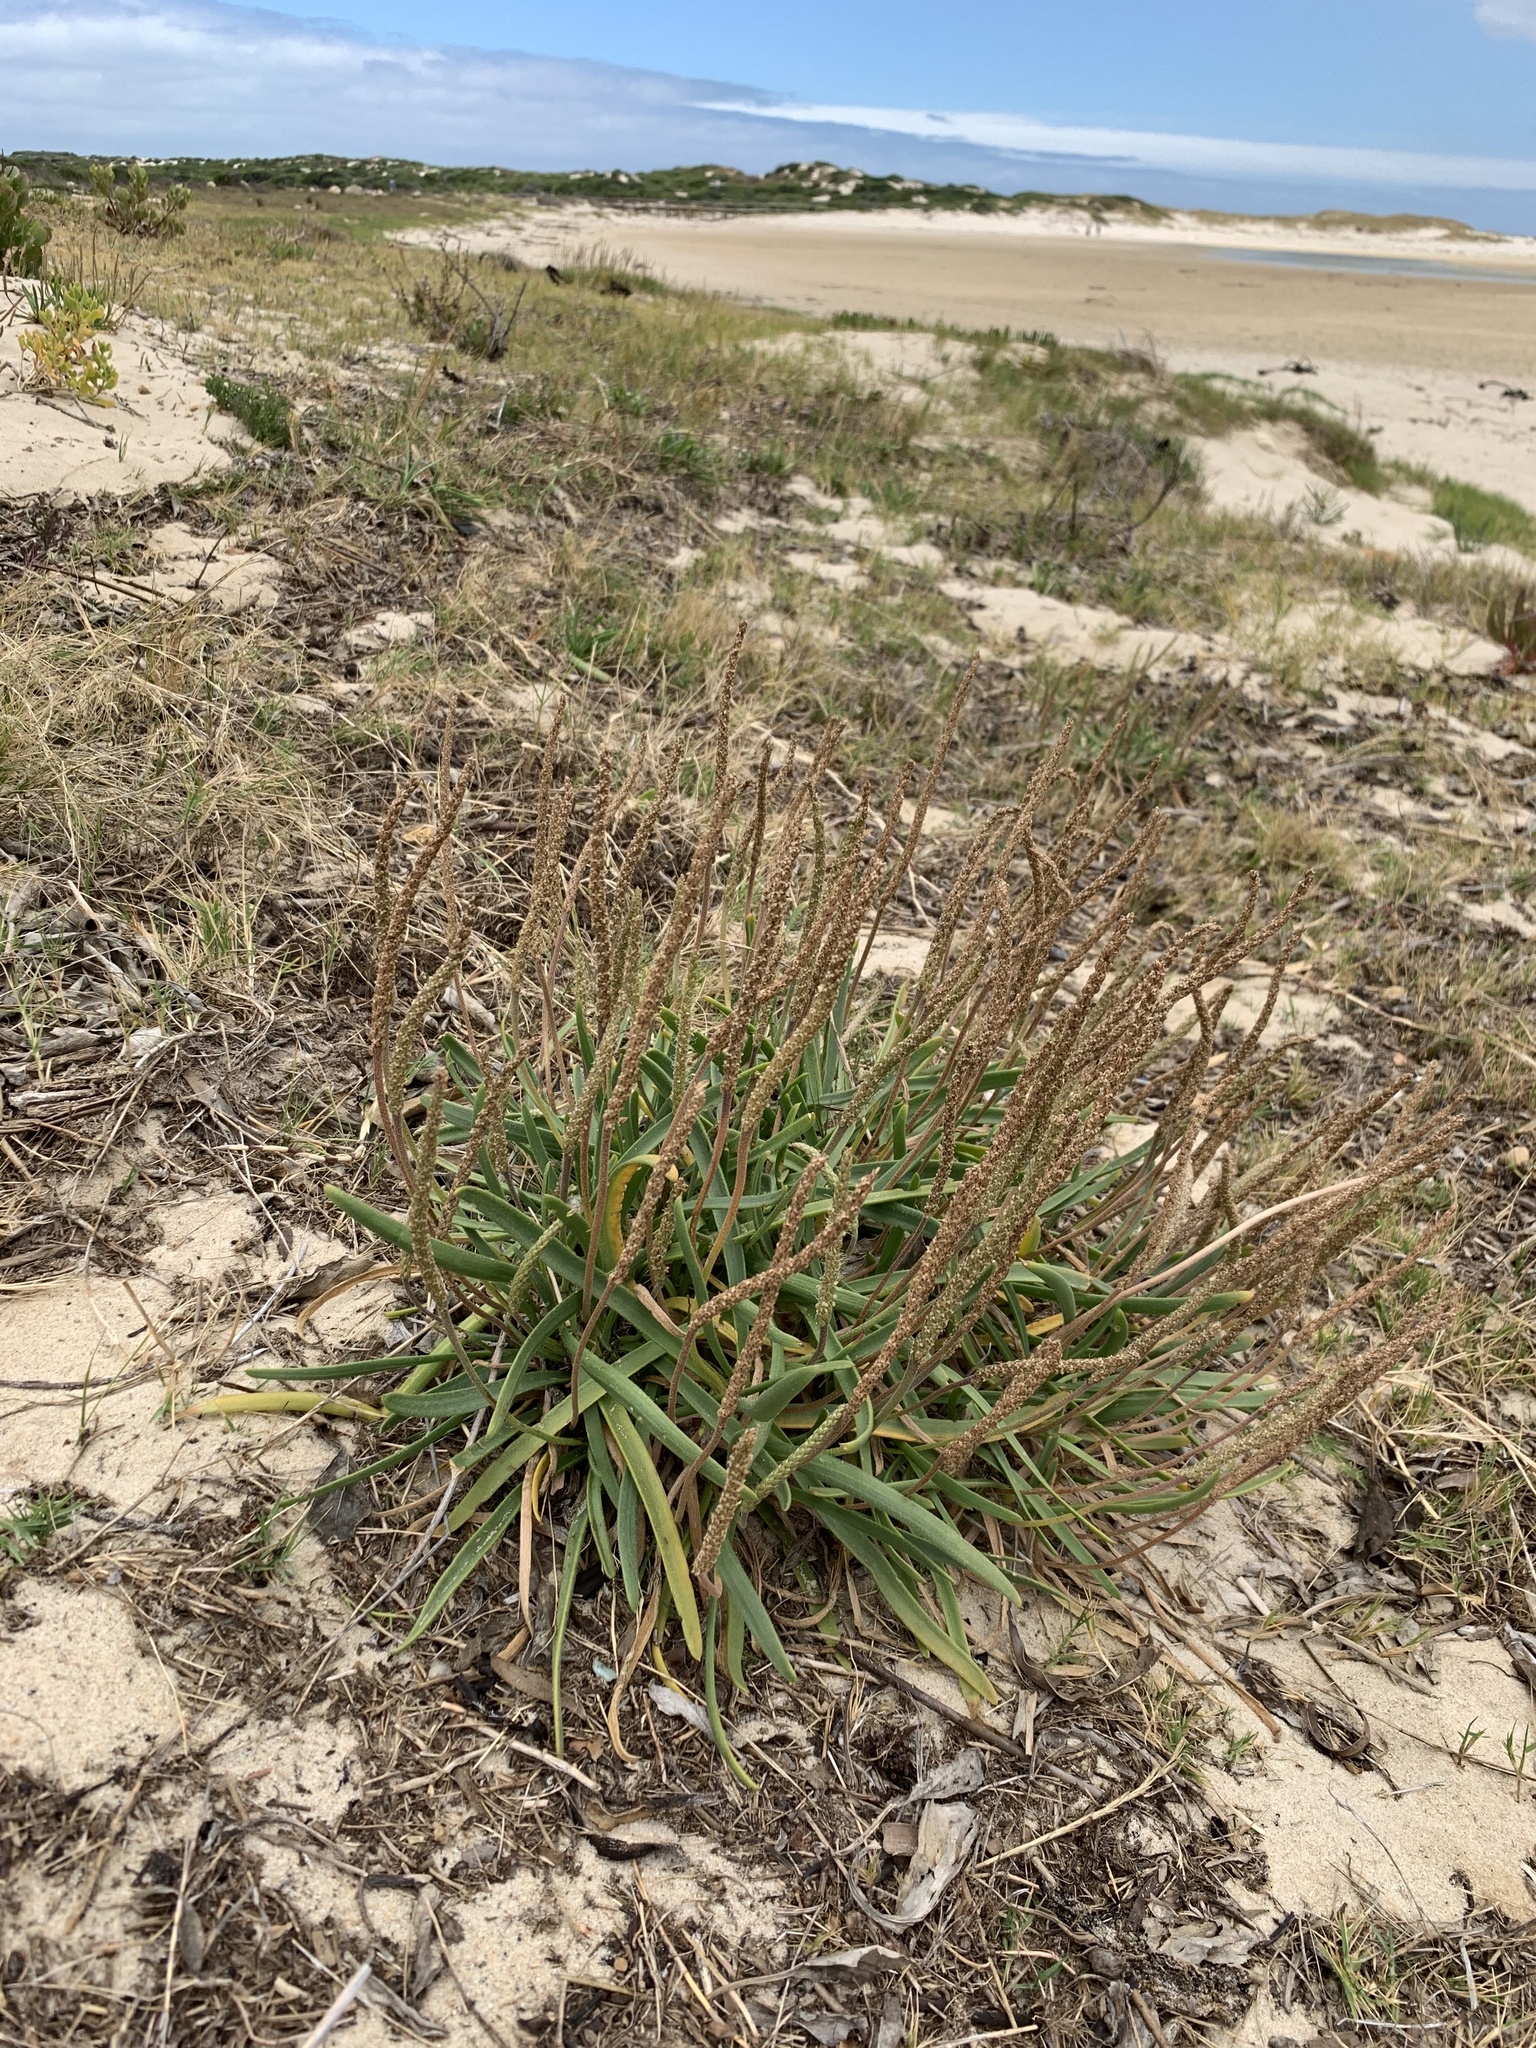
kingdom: Plantae
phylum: Tracheophyta
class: Magnoliopsida
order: Lamiales
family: Plantaginaceae
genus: Plantago
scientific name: Plantago carnosa
